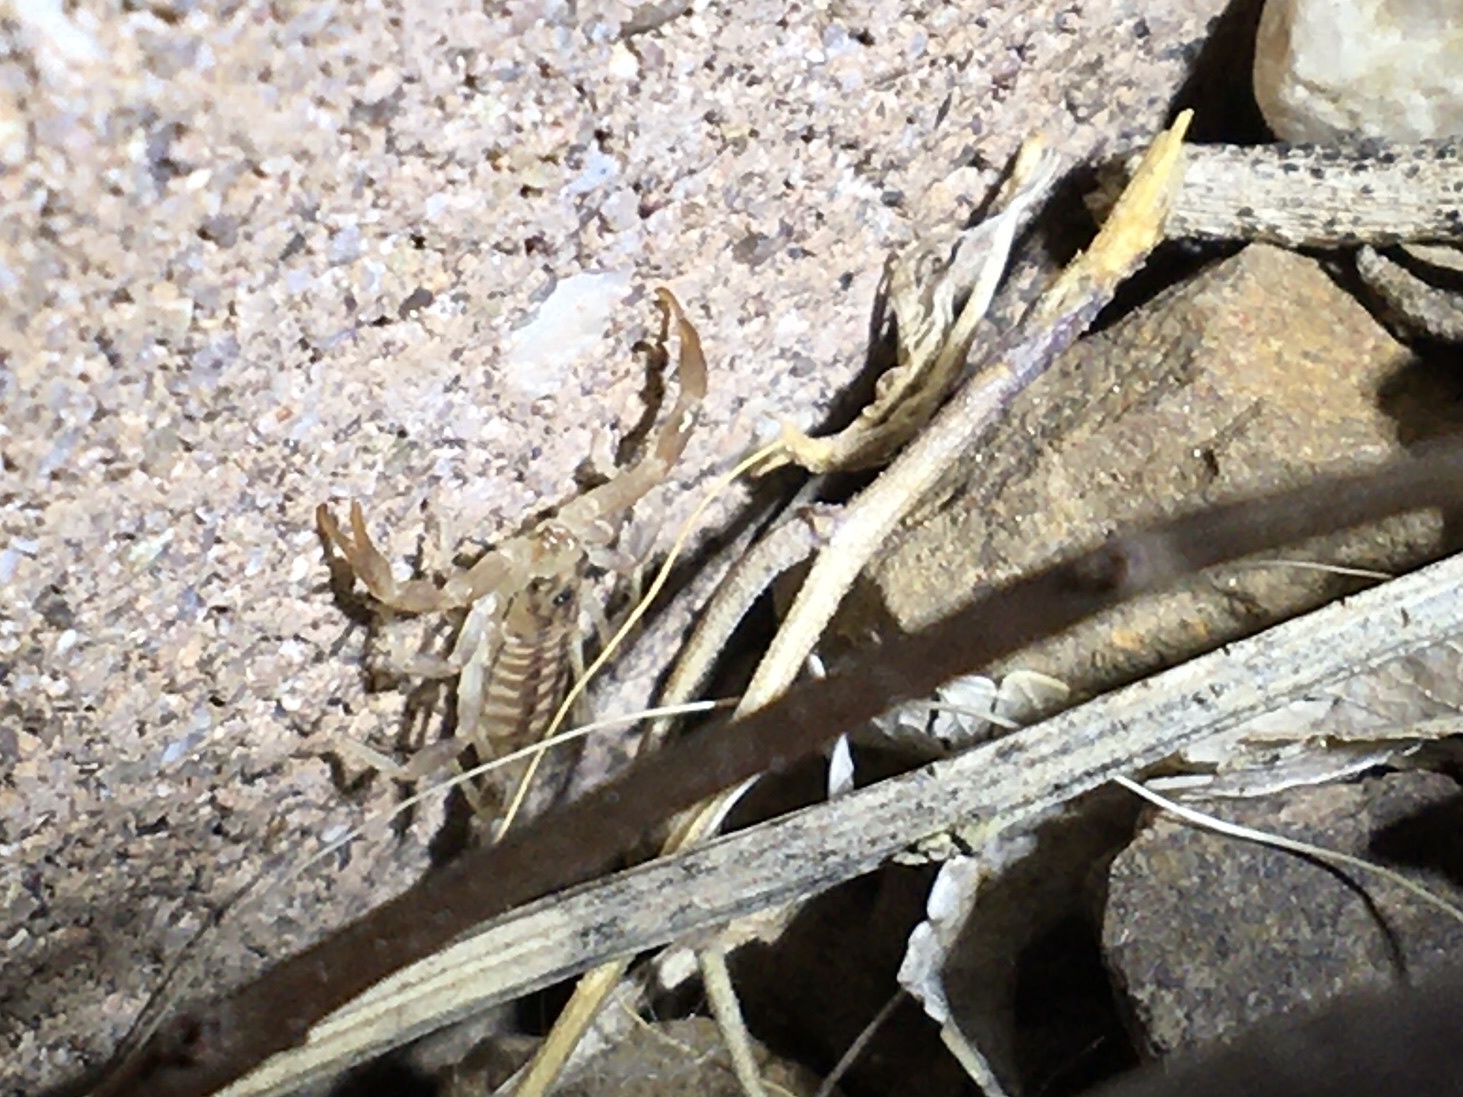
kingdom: Animalia
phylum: Arthropoda
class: Arachnida
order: Scorpiones
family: Vaejovidae
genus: Paravaejovis
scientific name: Paravaejovis spinigerus
